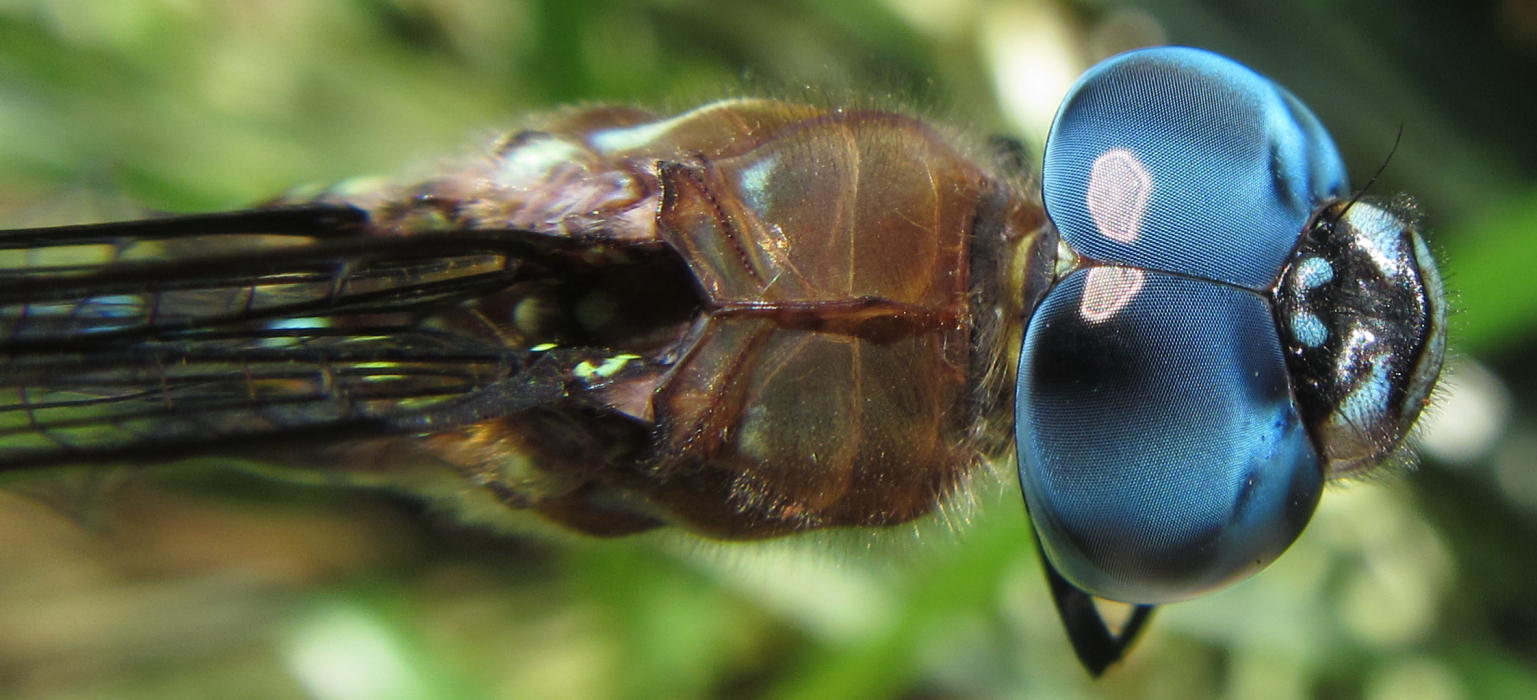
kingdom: Animalia
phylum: Arthropoda
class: Insecta
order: Odonata
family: Aeshnidae
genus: Anaciaeschna
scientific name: Anaciaeschna triangulifera
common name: Evening hawker
